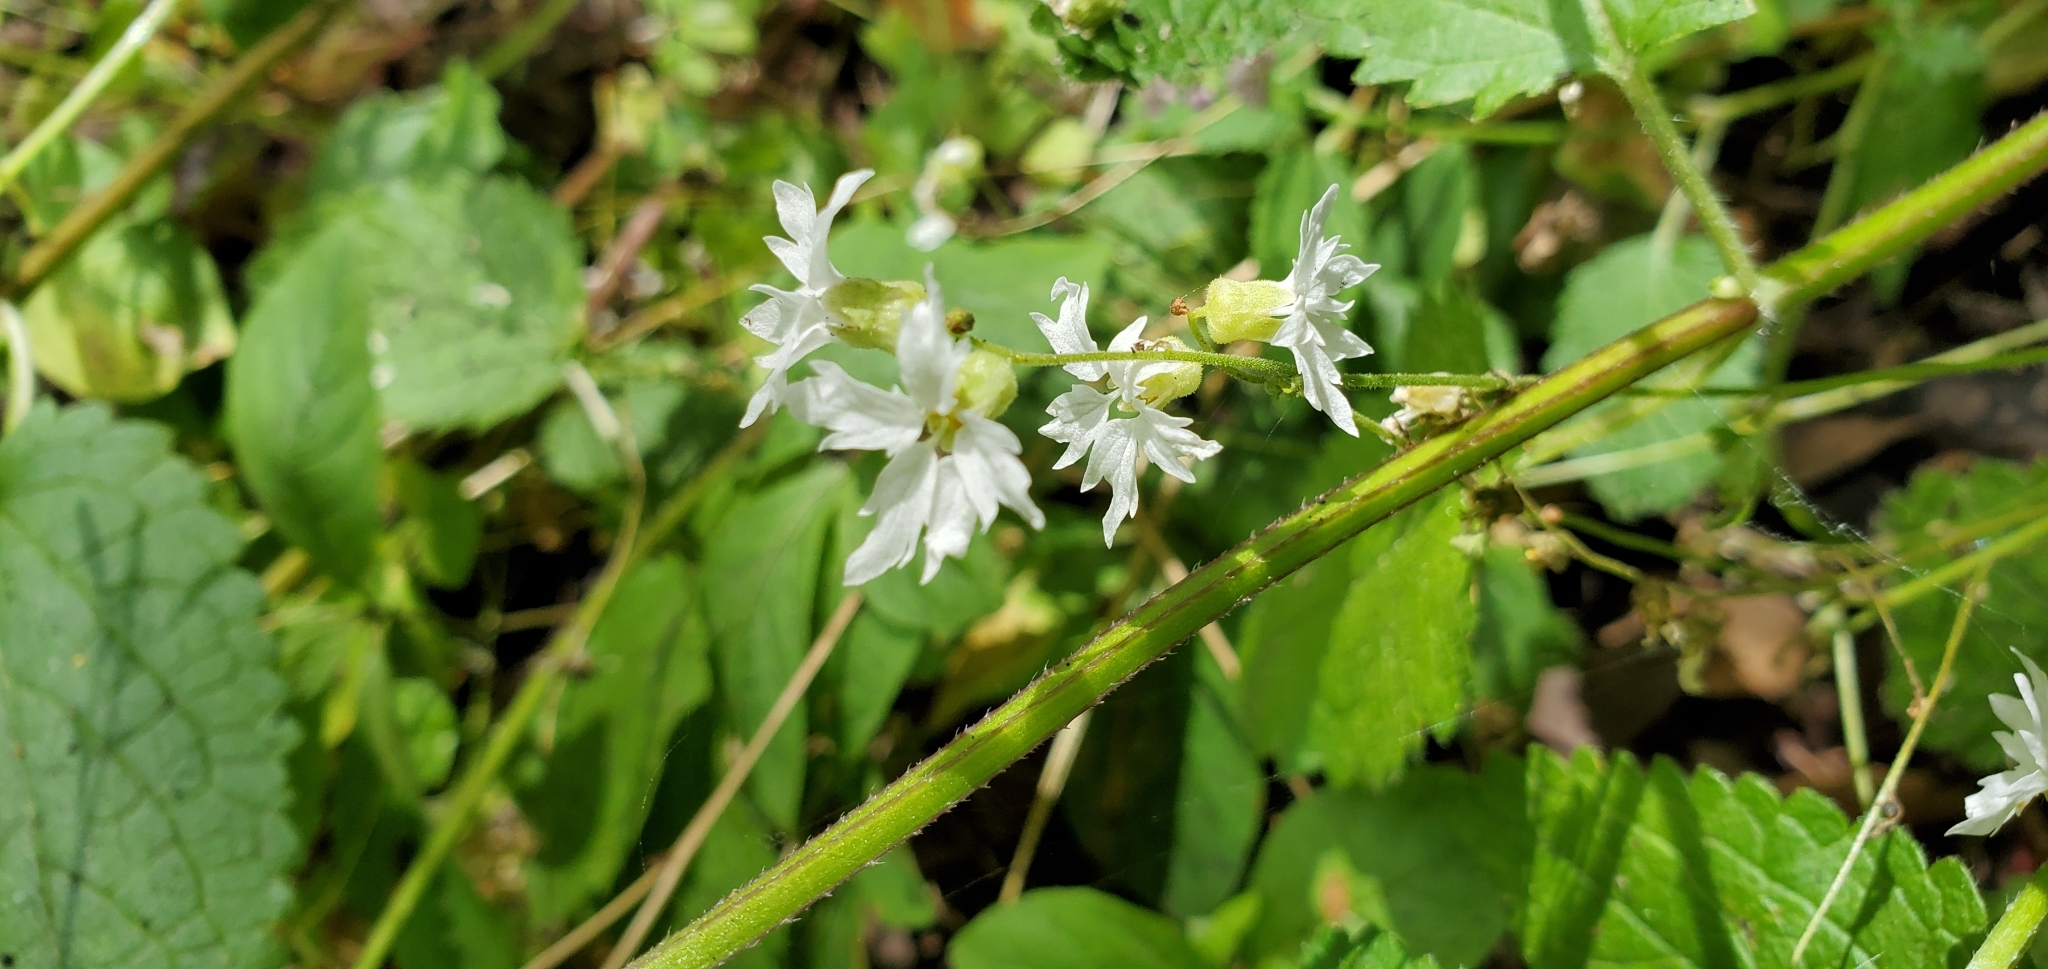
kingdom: Plantae
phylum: Tracheophyta
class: Magnoliopsida
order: Saxifragales
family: Saxifragaceae
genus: Lithophragma
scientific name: Lithophragma heterophyllum
